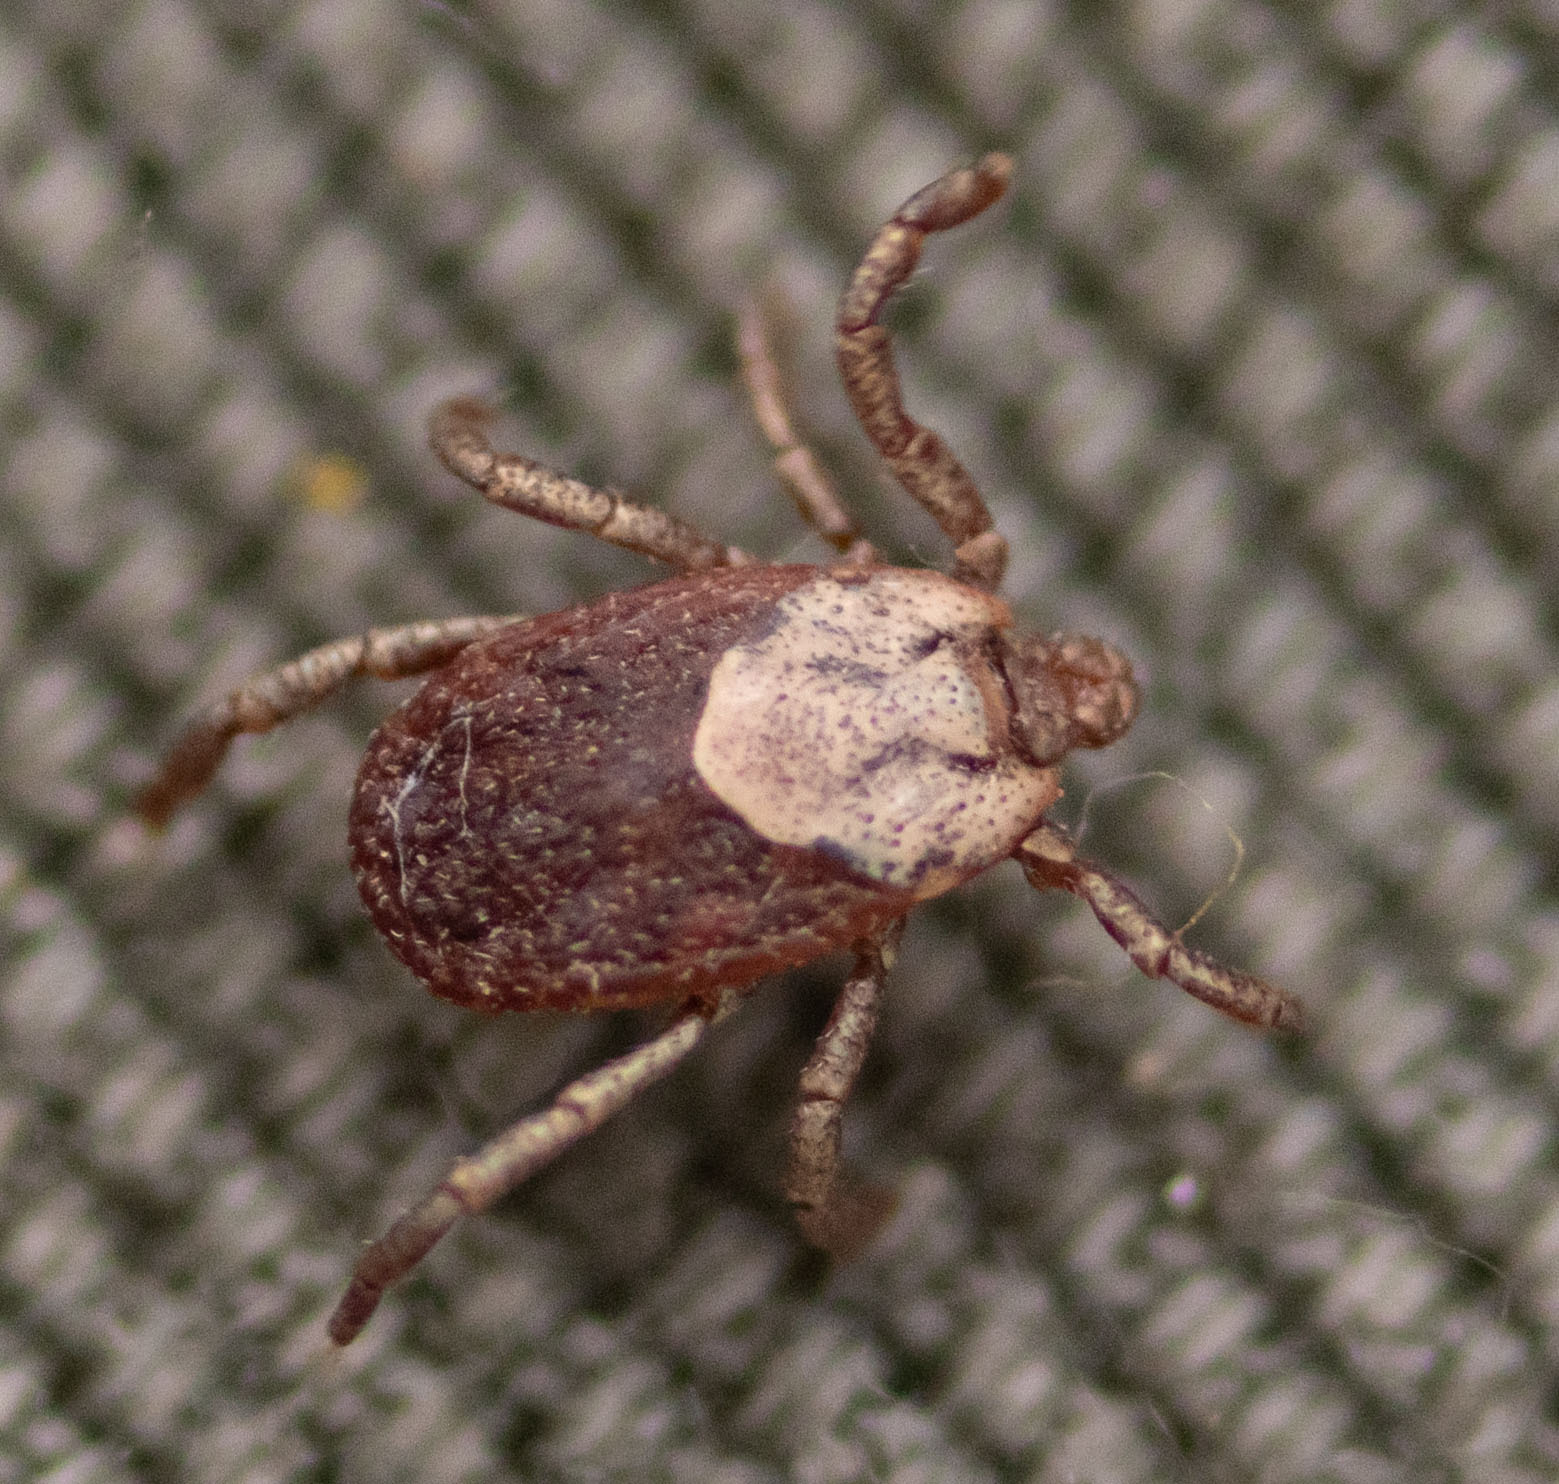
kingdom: Animalia
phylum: Arthropoda
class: Arachnida
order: Ixodida
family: Ixodidae
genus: Dermacentor
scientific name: Dermacentor occidentalis
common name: Net tick
